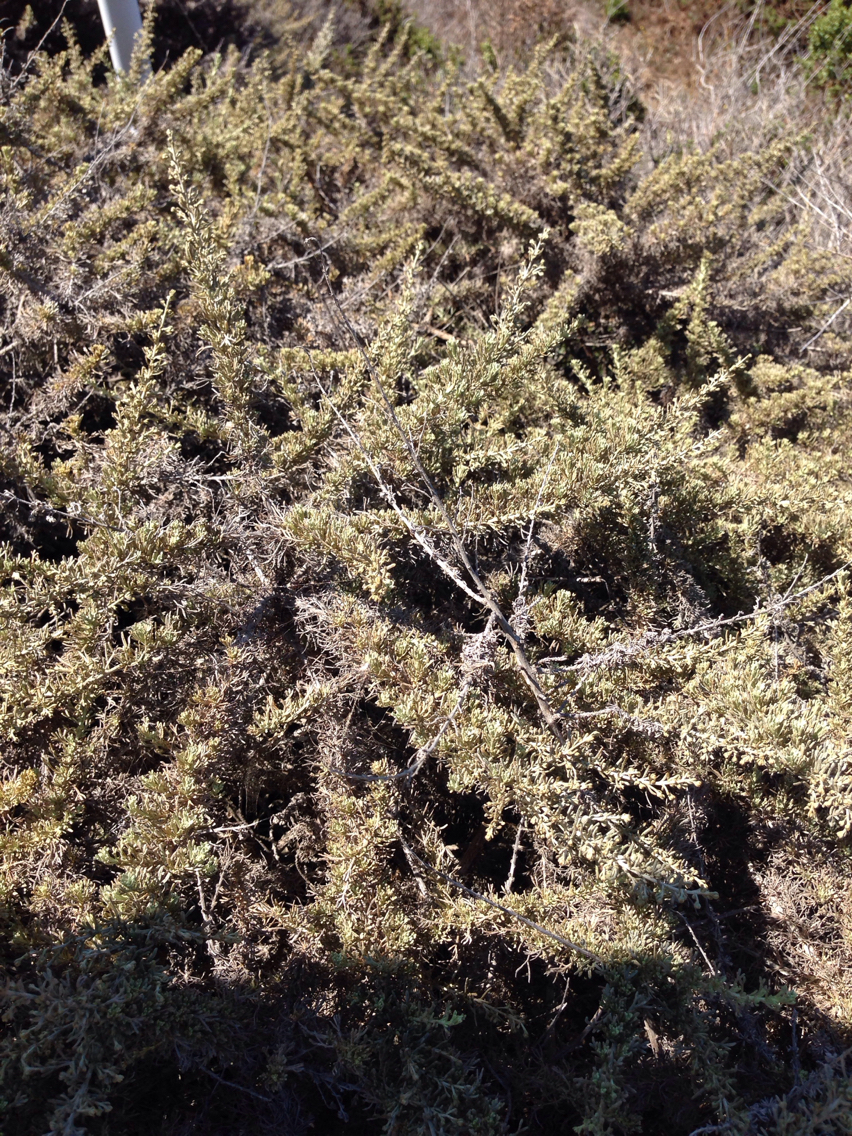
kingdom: Plantae
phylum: Tracheophyta
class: Magnoliopsida
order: Asterales
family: Asteraceae
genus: Artemisia
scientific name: Artemisia californica
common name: California sagebrush
